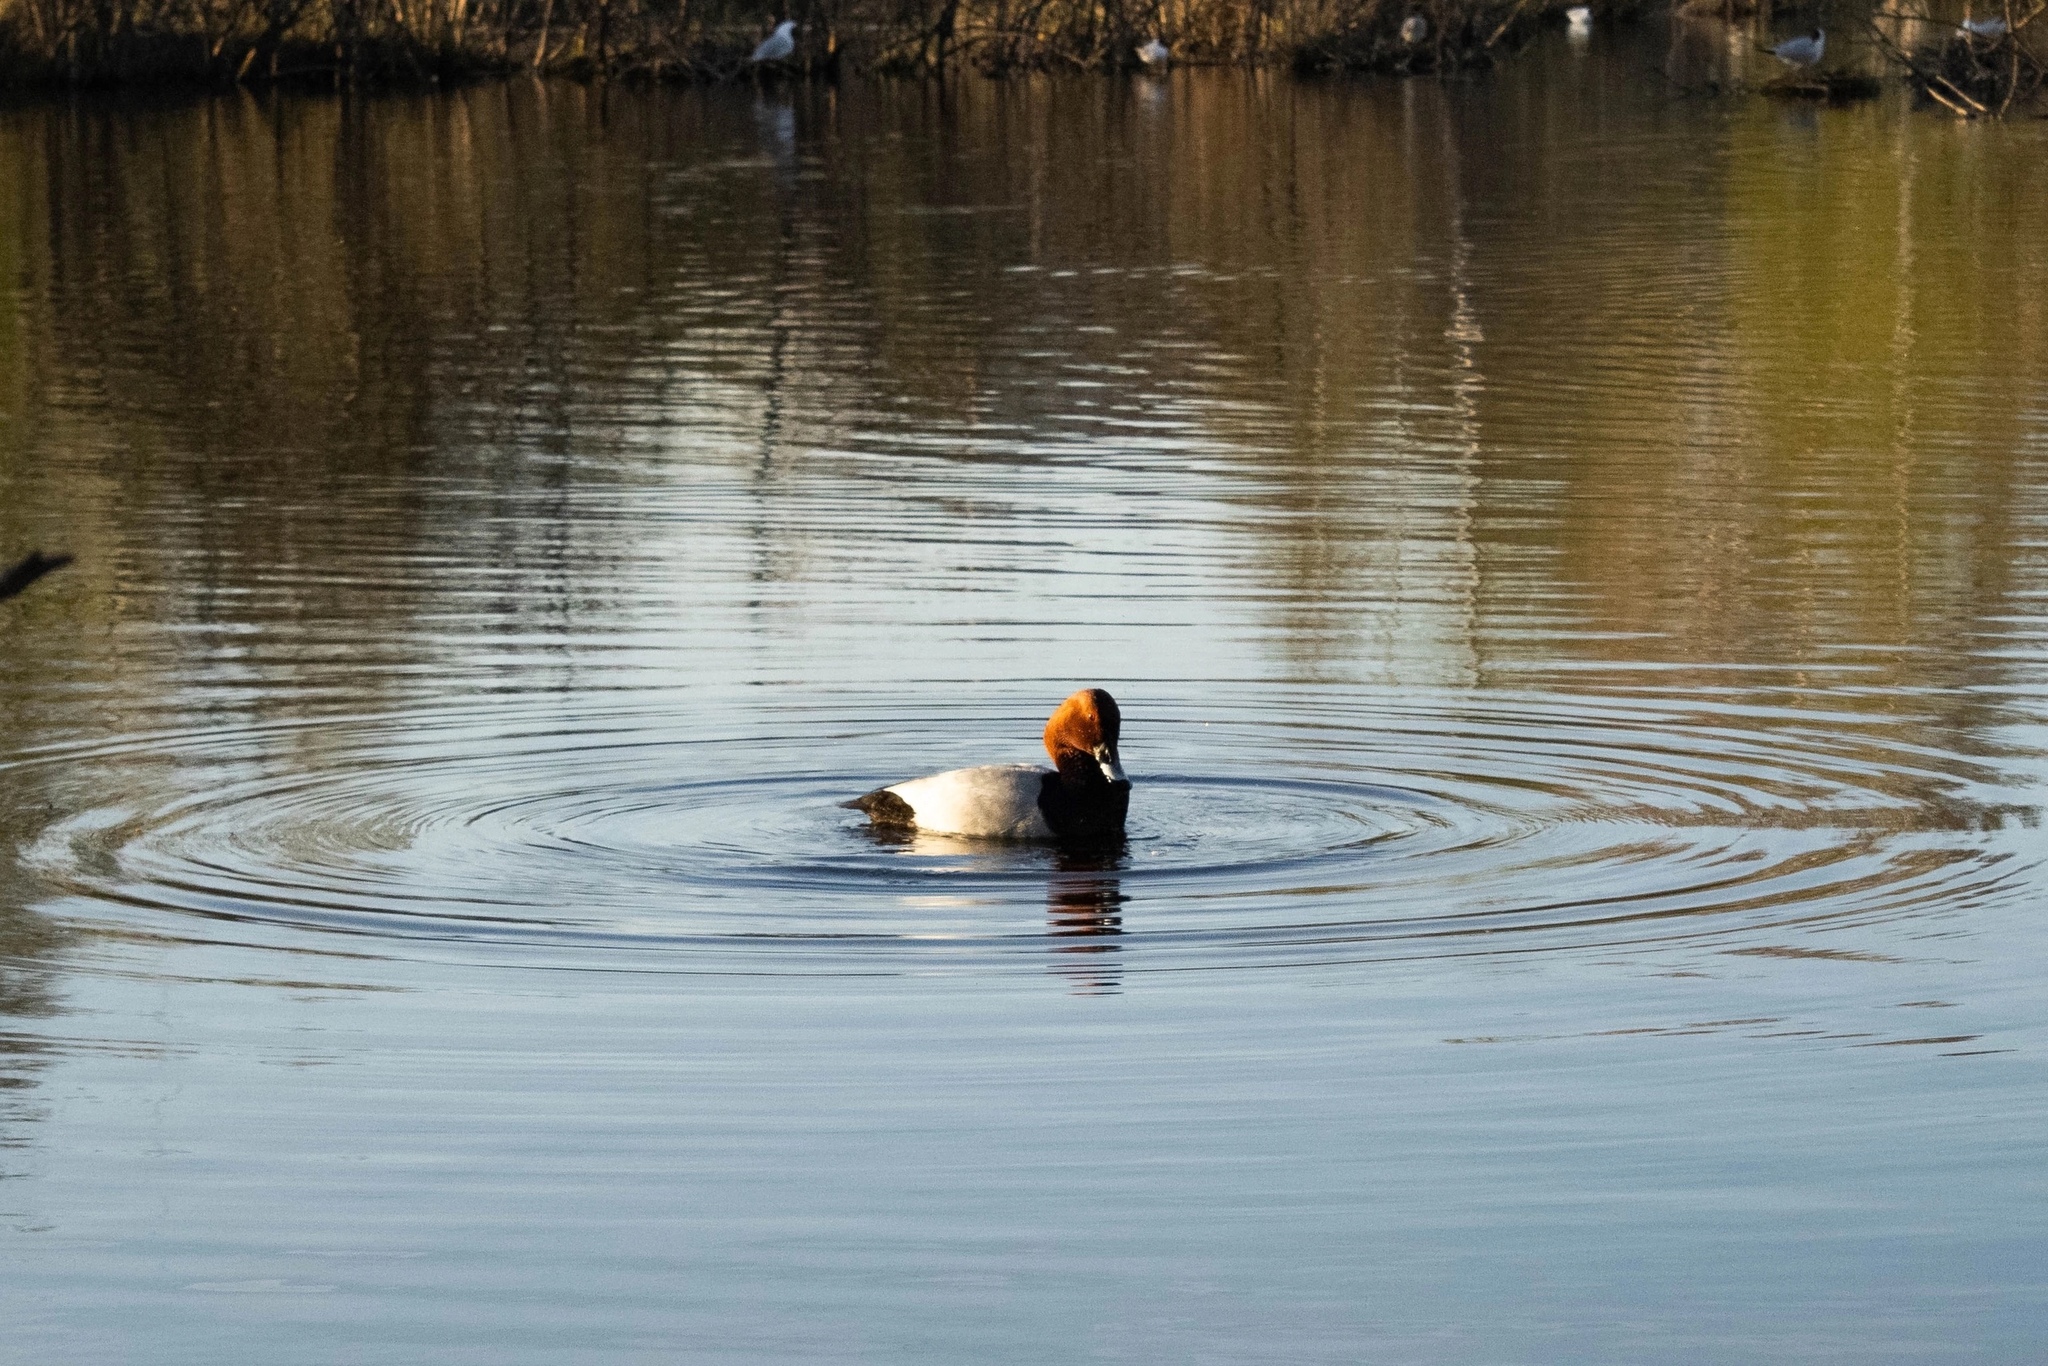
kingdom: Animalia
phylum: Chordata
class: Aves
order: Anseriformes
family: Anatidae
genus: Aythya
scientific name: Aythya ferina
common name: Common pochard
